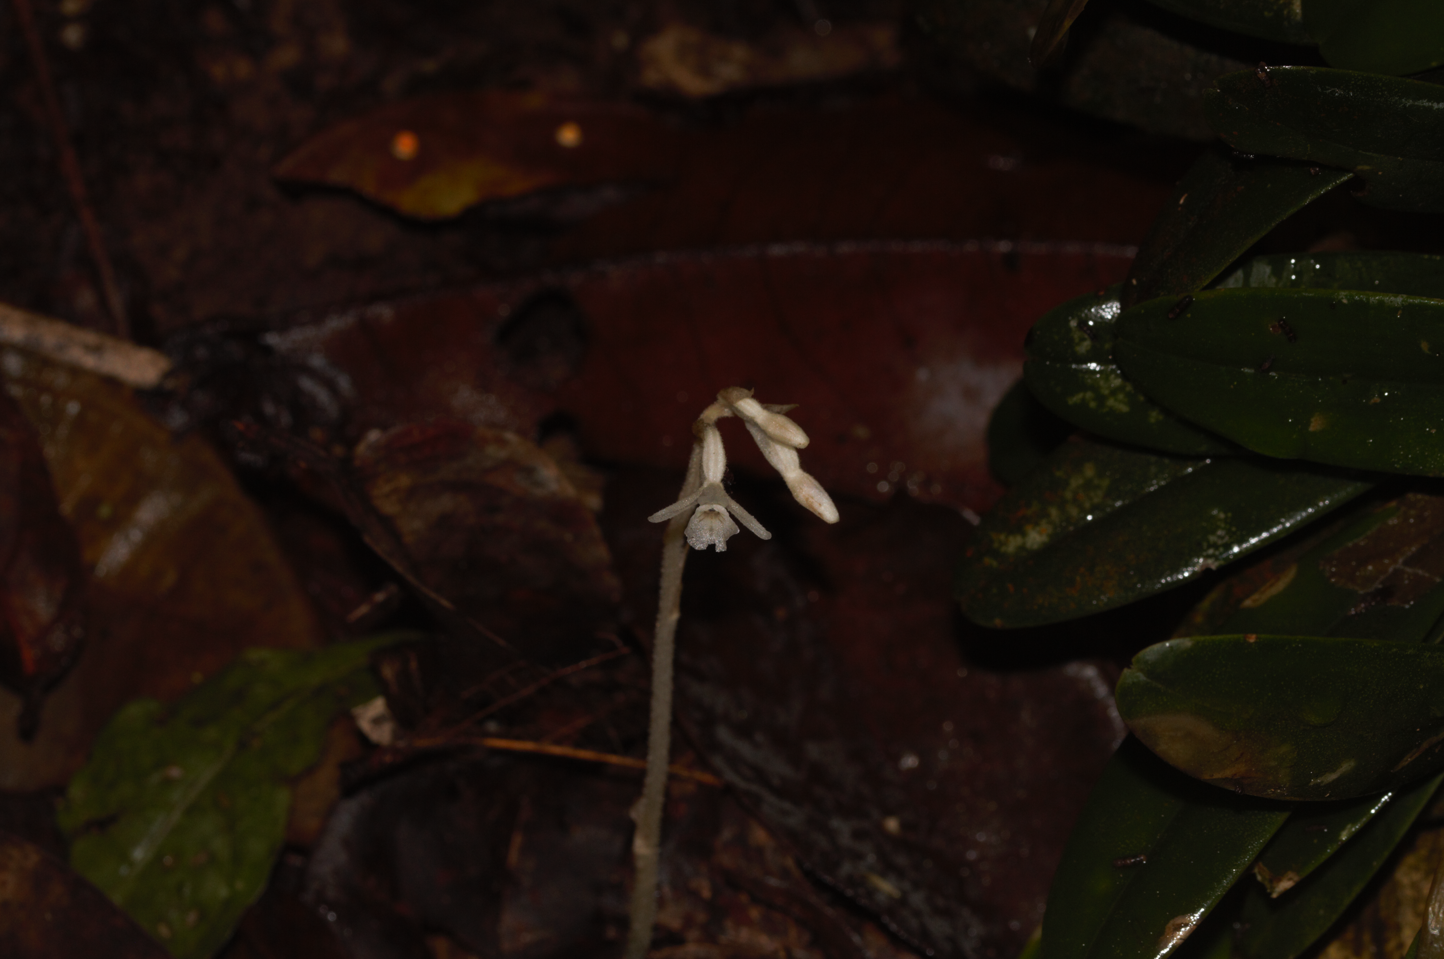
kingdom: Plantae
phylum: Tracheophyta
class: Liliopsida
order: Asparagales
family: Orchidaceae
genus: Degranvillea
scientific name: Degranvillea dermaptera
